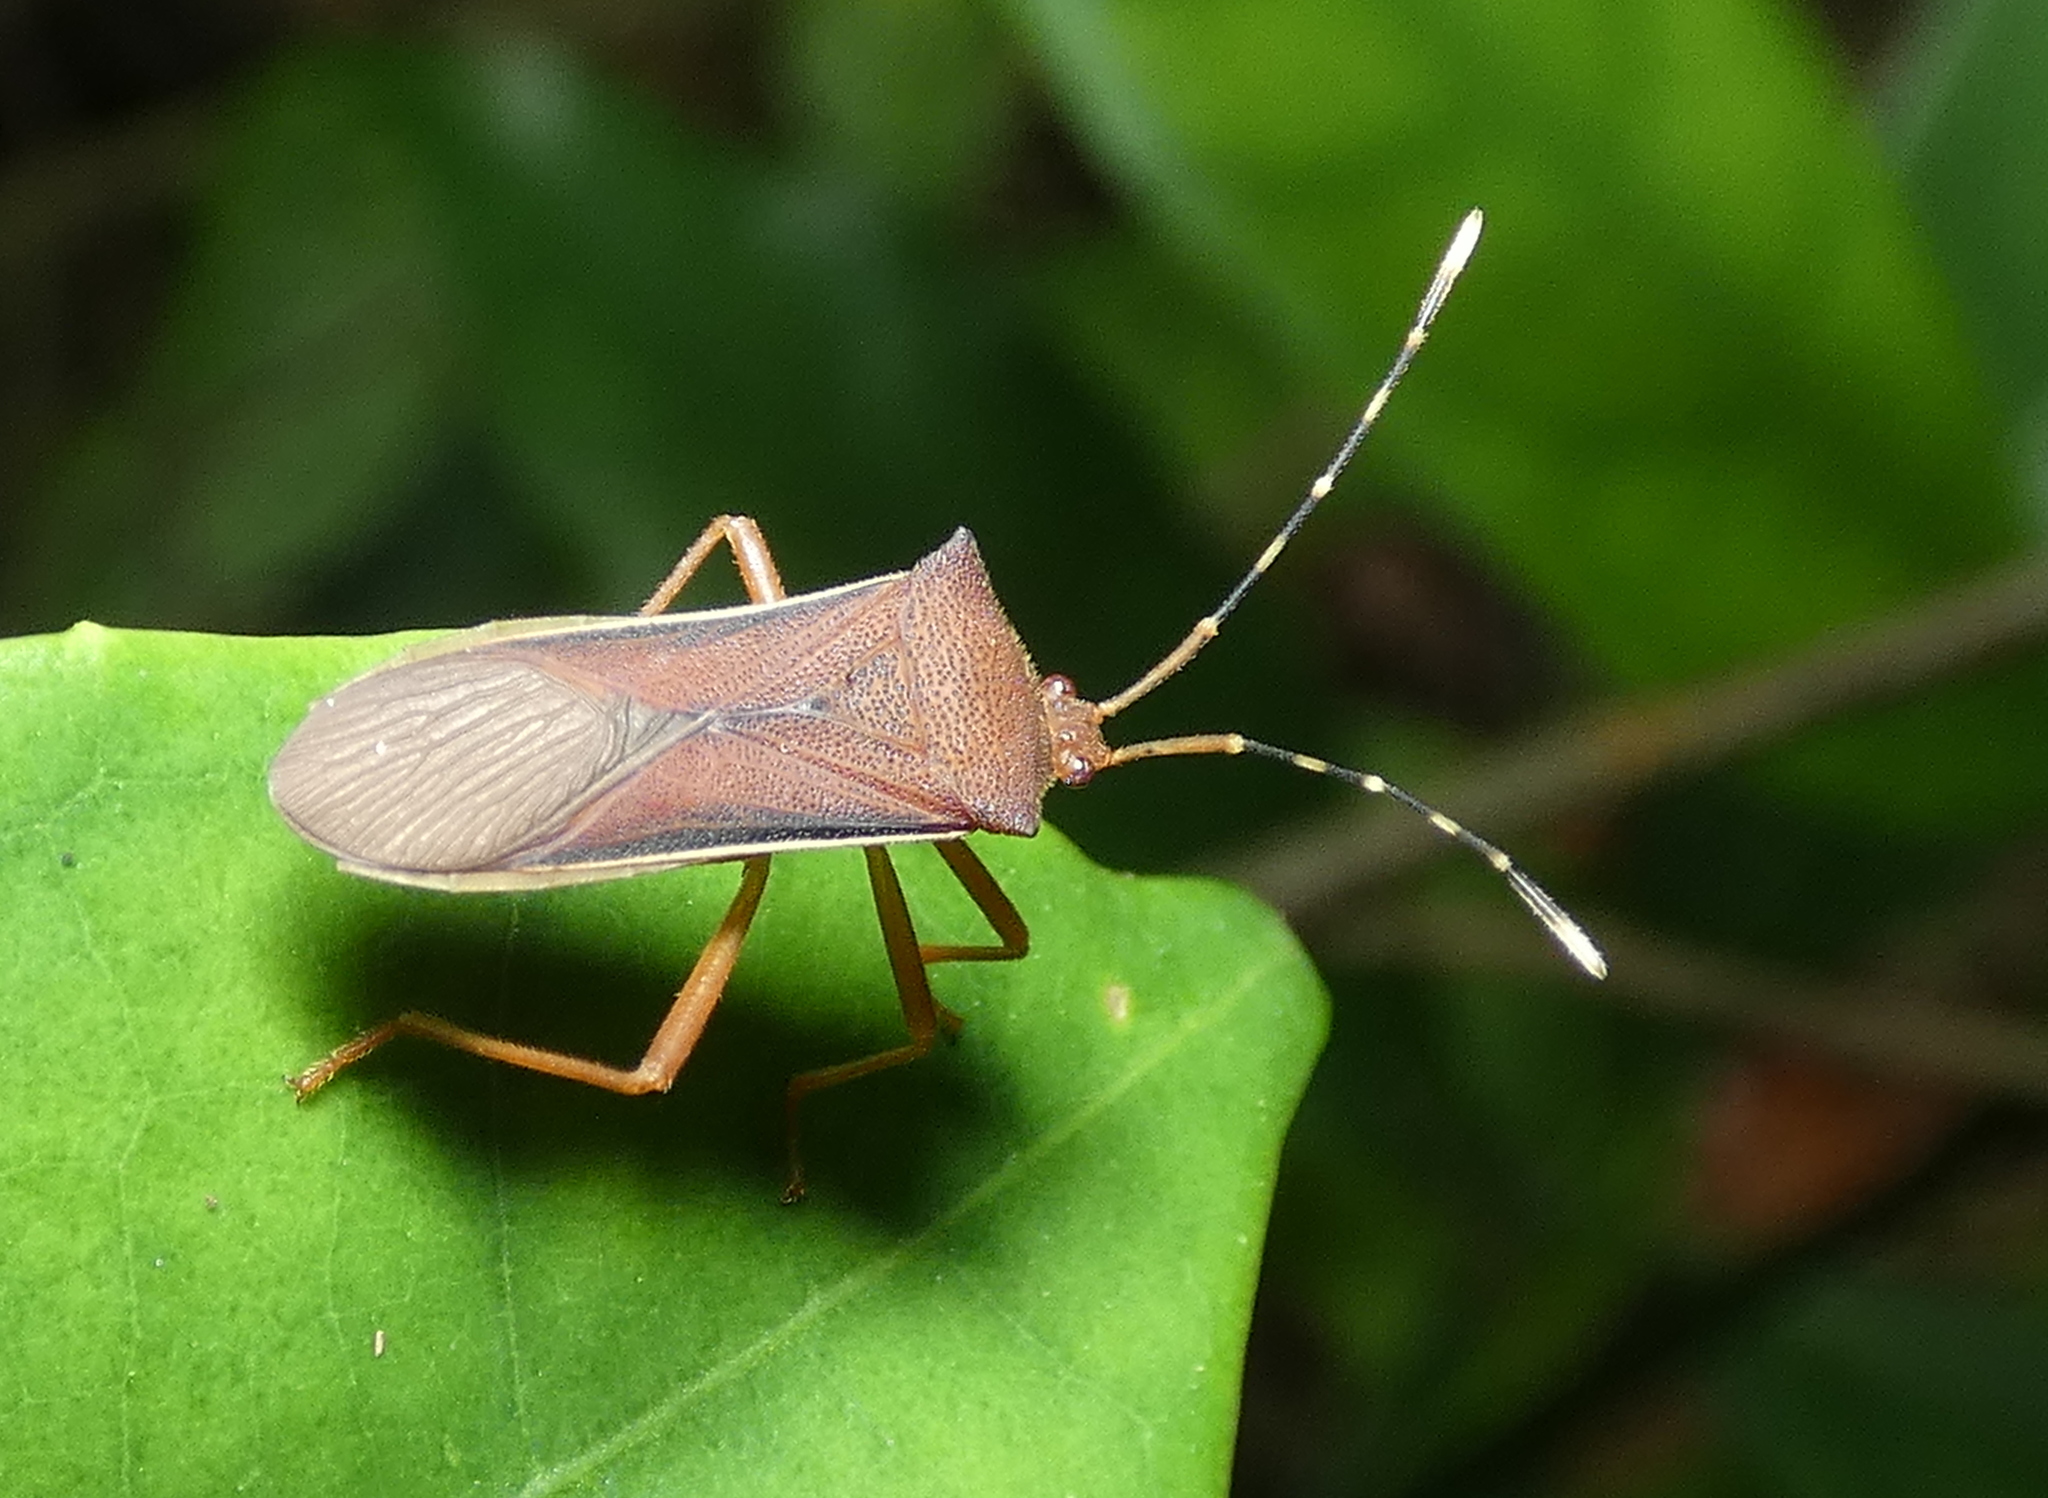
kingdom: Animalia
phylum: Arthropoda
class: Insecta
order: Hemiptera
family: Coreidae
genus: Anasa
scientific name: Anasa varicornis
